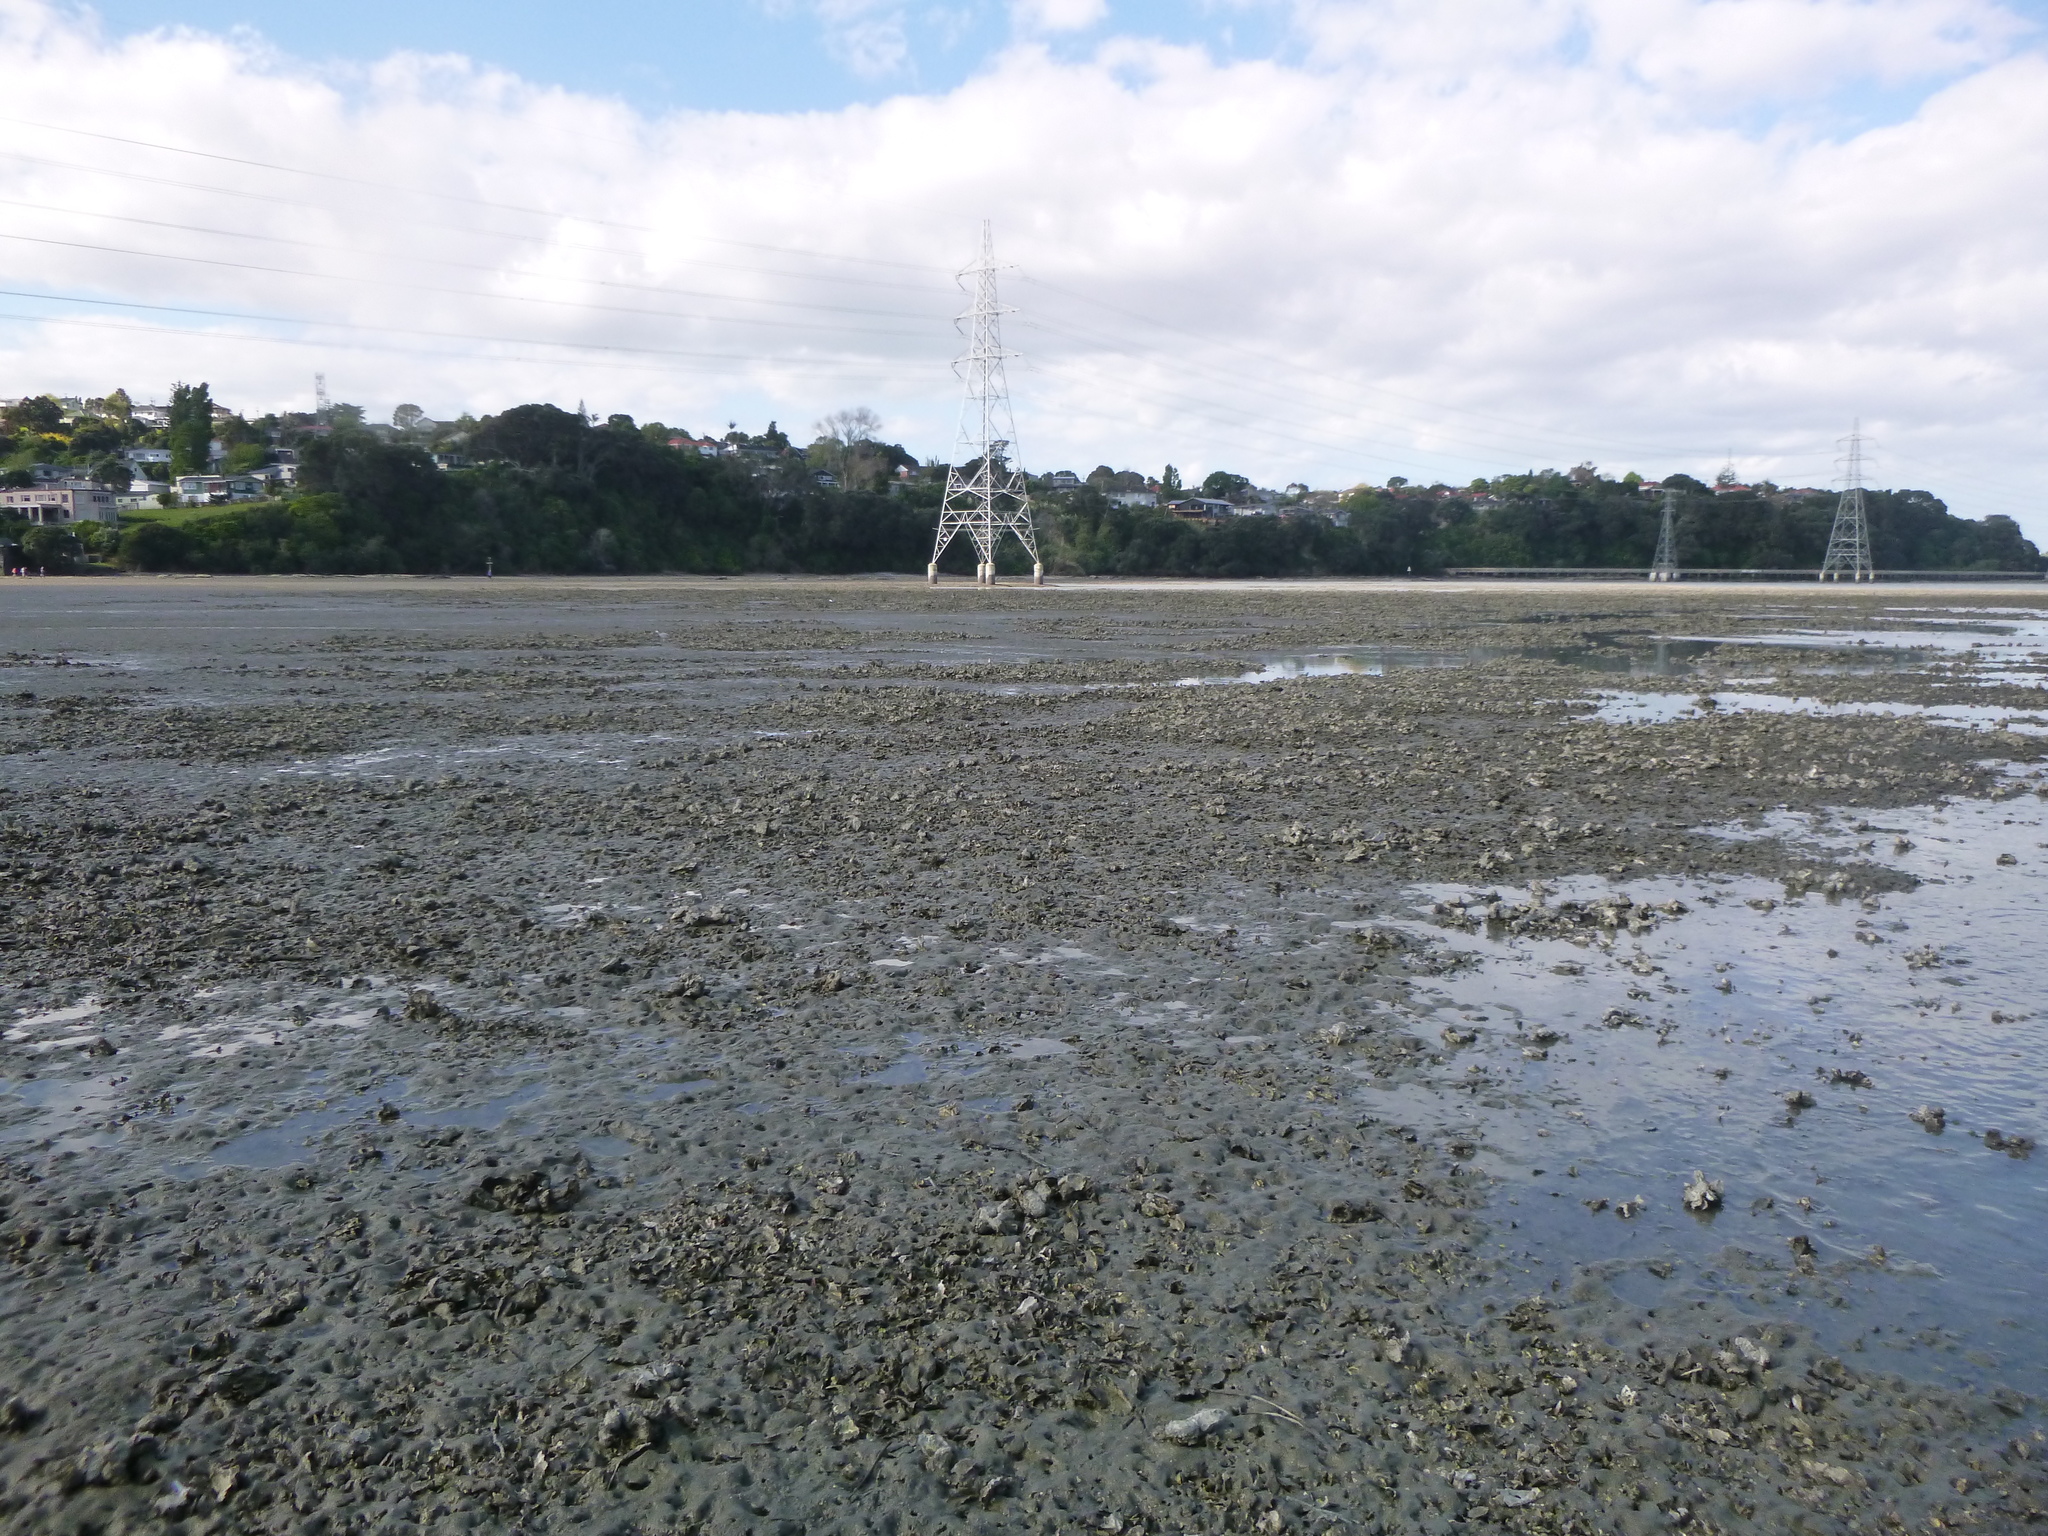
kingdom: Animalia
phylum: Mollusca
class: Bivalvia
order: Ostreida
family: Ostreidae
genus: Magallana
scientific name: Magallana gigas
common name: Pacific oyster
